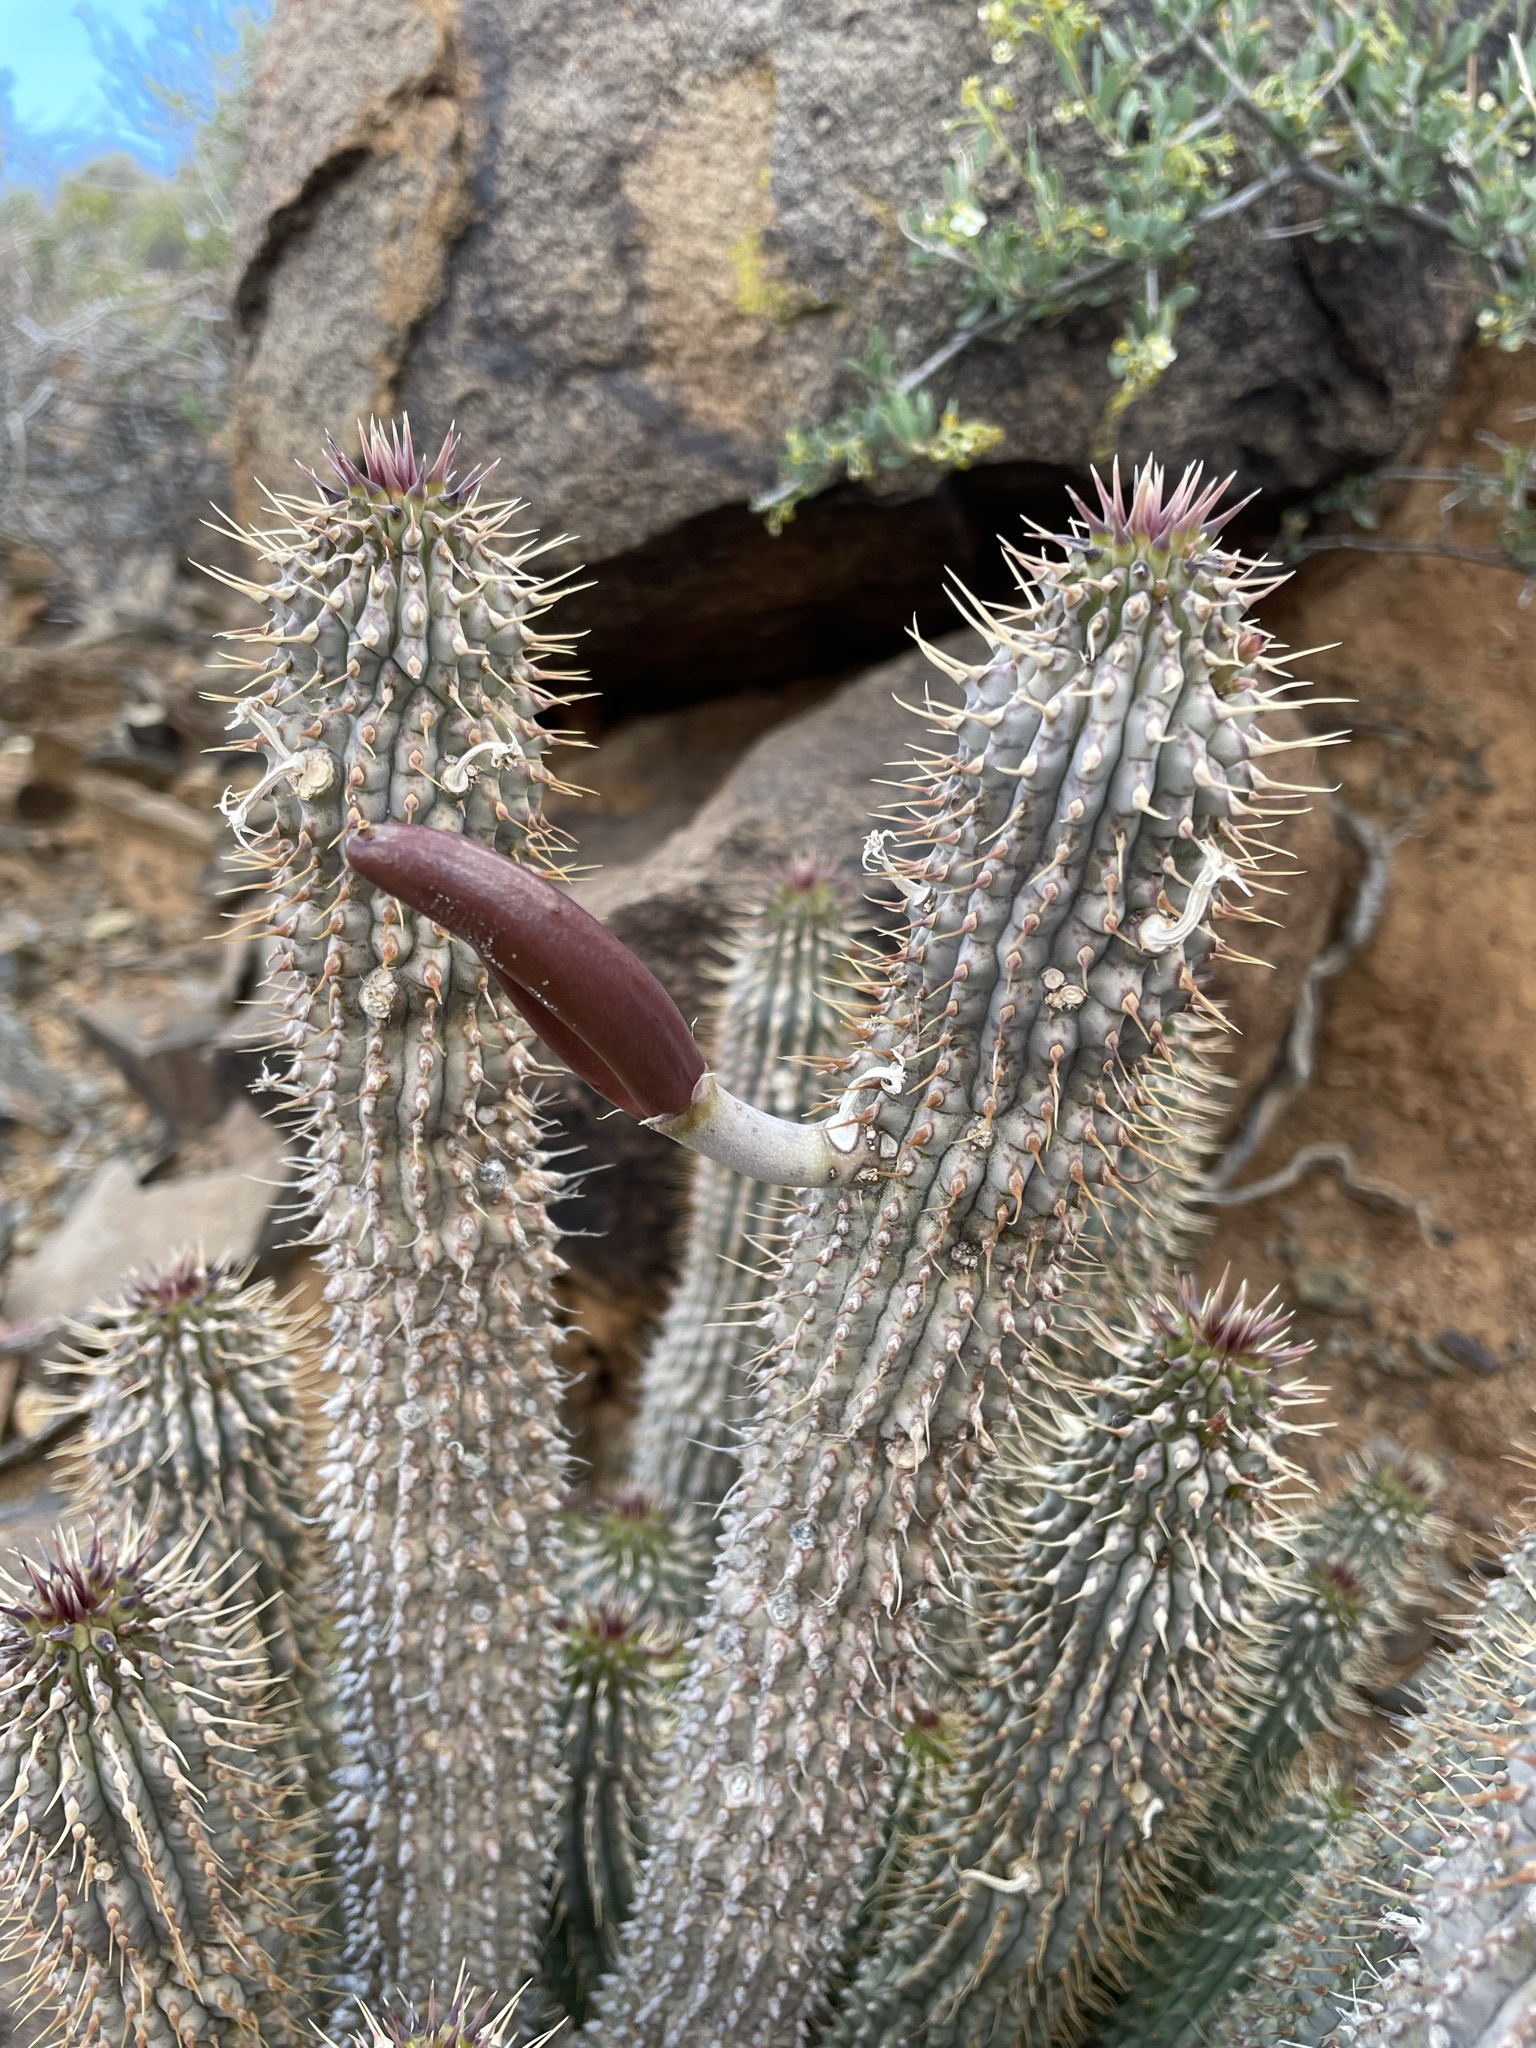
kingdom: Plantae
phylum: Tracheophyta
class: Magnoliopsida
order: Gentianales
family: Apocynaceae
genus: Hoodia
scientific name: Hoodia gordonii
